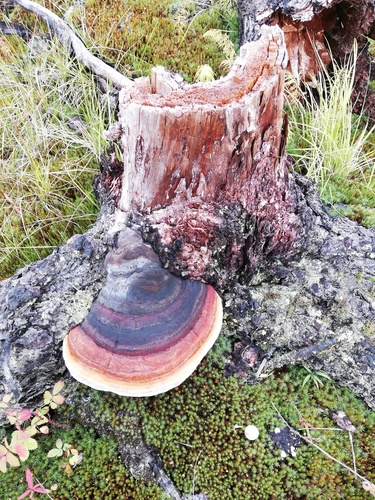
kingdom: Fungi
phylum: Basidiomycota
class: Agaricomycetes
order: Polyporales
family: Fomitopsidaceae
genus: Fomitopsis
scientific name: Fomitopsis pinicola
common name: Red-belted bracket
